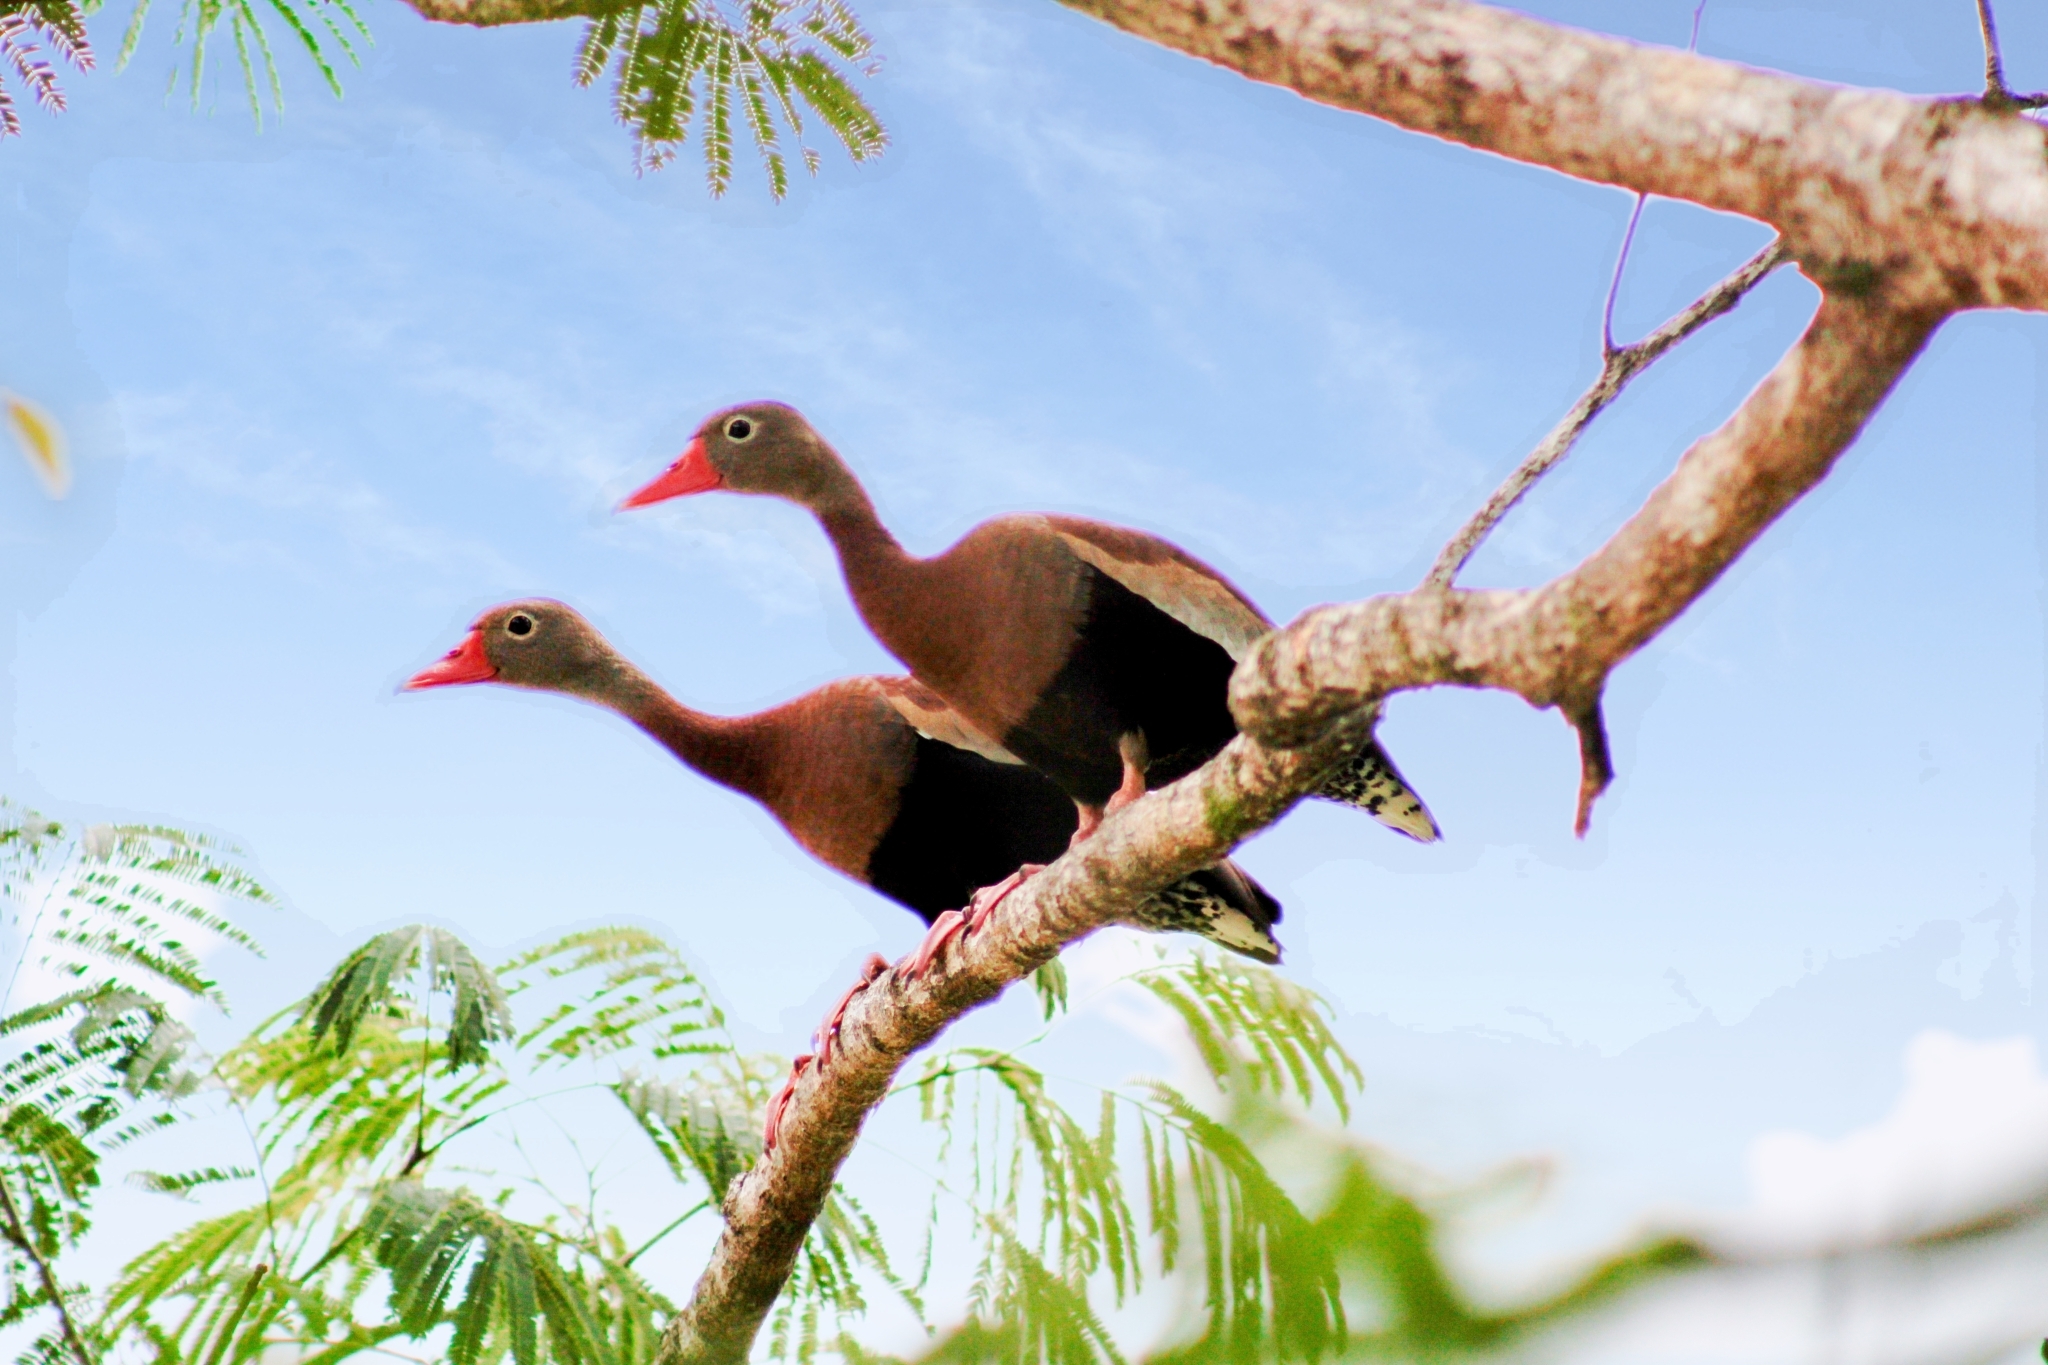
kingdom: Animalia
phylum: Chordata
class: Aves
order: Anseriformes
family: Anatidae
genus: Dendrocygna
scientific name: Dendrocygna autumnalis
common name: Black-bellied whistling duck
